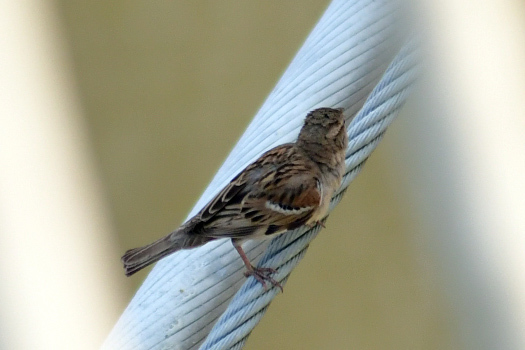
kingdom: Animalia
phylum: Chordata
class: Aves
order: Passeriformes
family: Passeridae
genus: Passer
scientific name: Passer domesticus
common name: House sparrow
